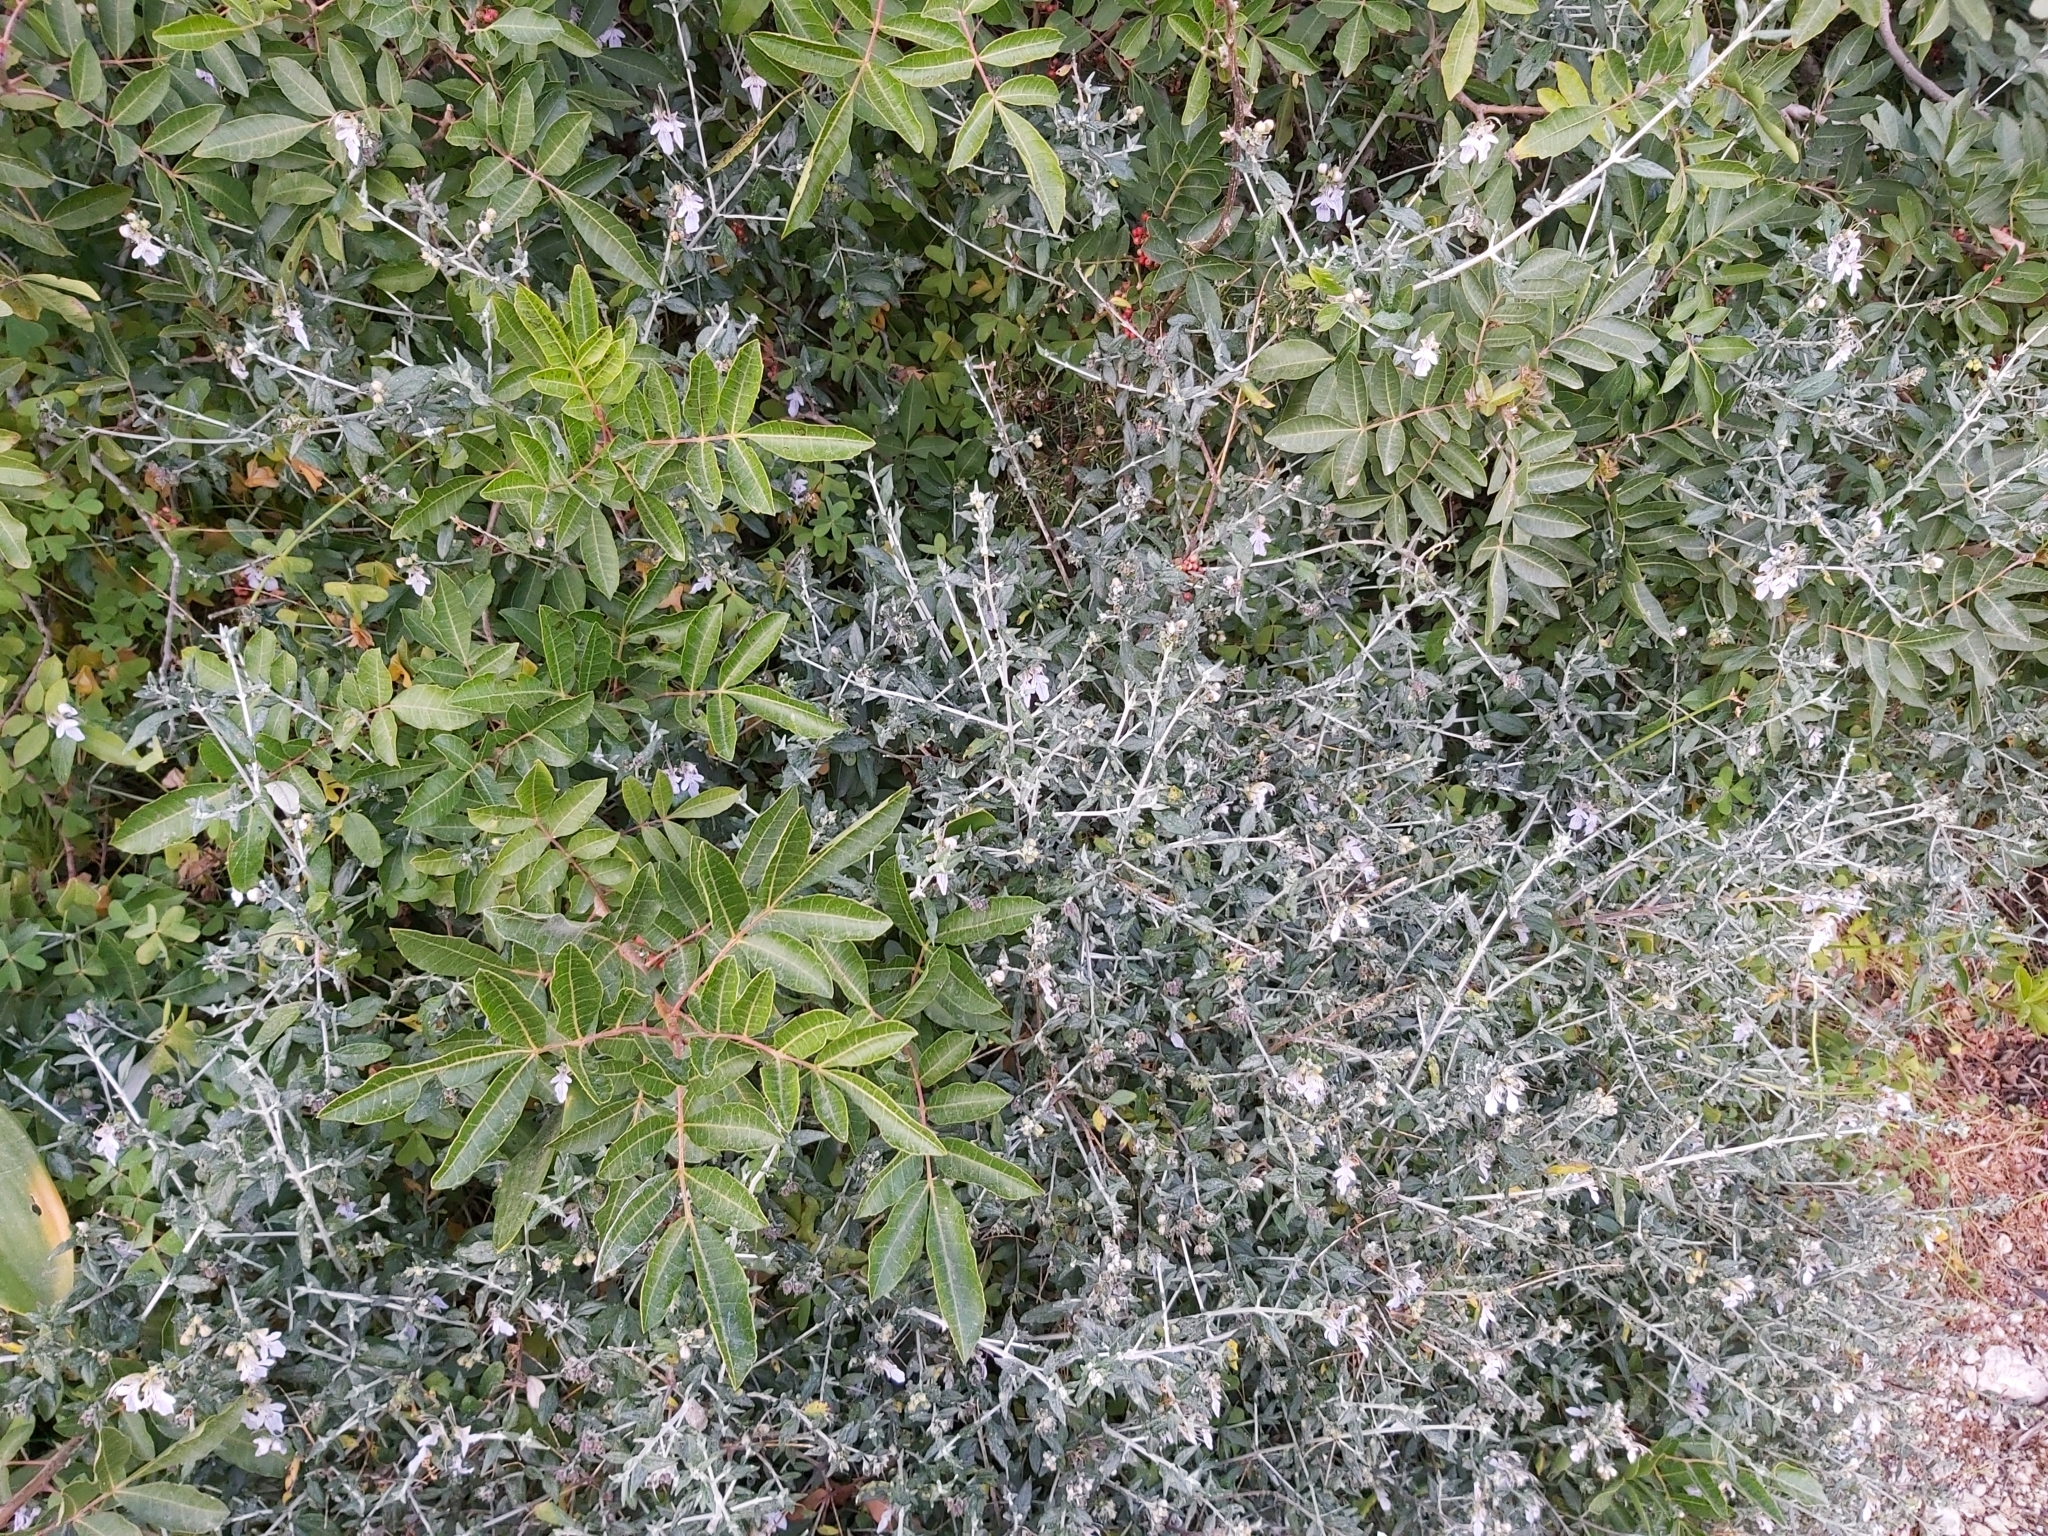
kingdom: Plantae
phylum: Tracheophyta
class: Magnoliopsida
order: Lamiales
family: Lamiaceae
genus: Teucrium
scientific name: Teucrium fruticans
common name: Shrubby germander
